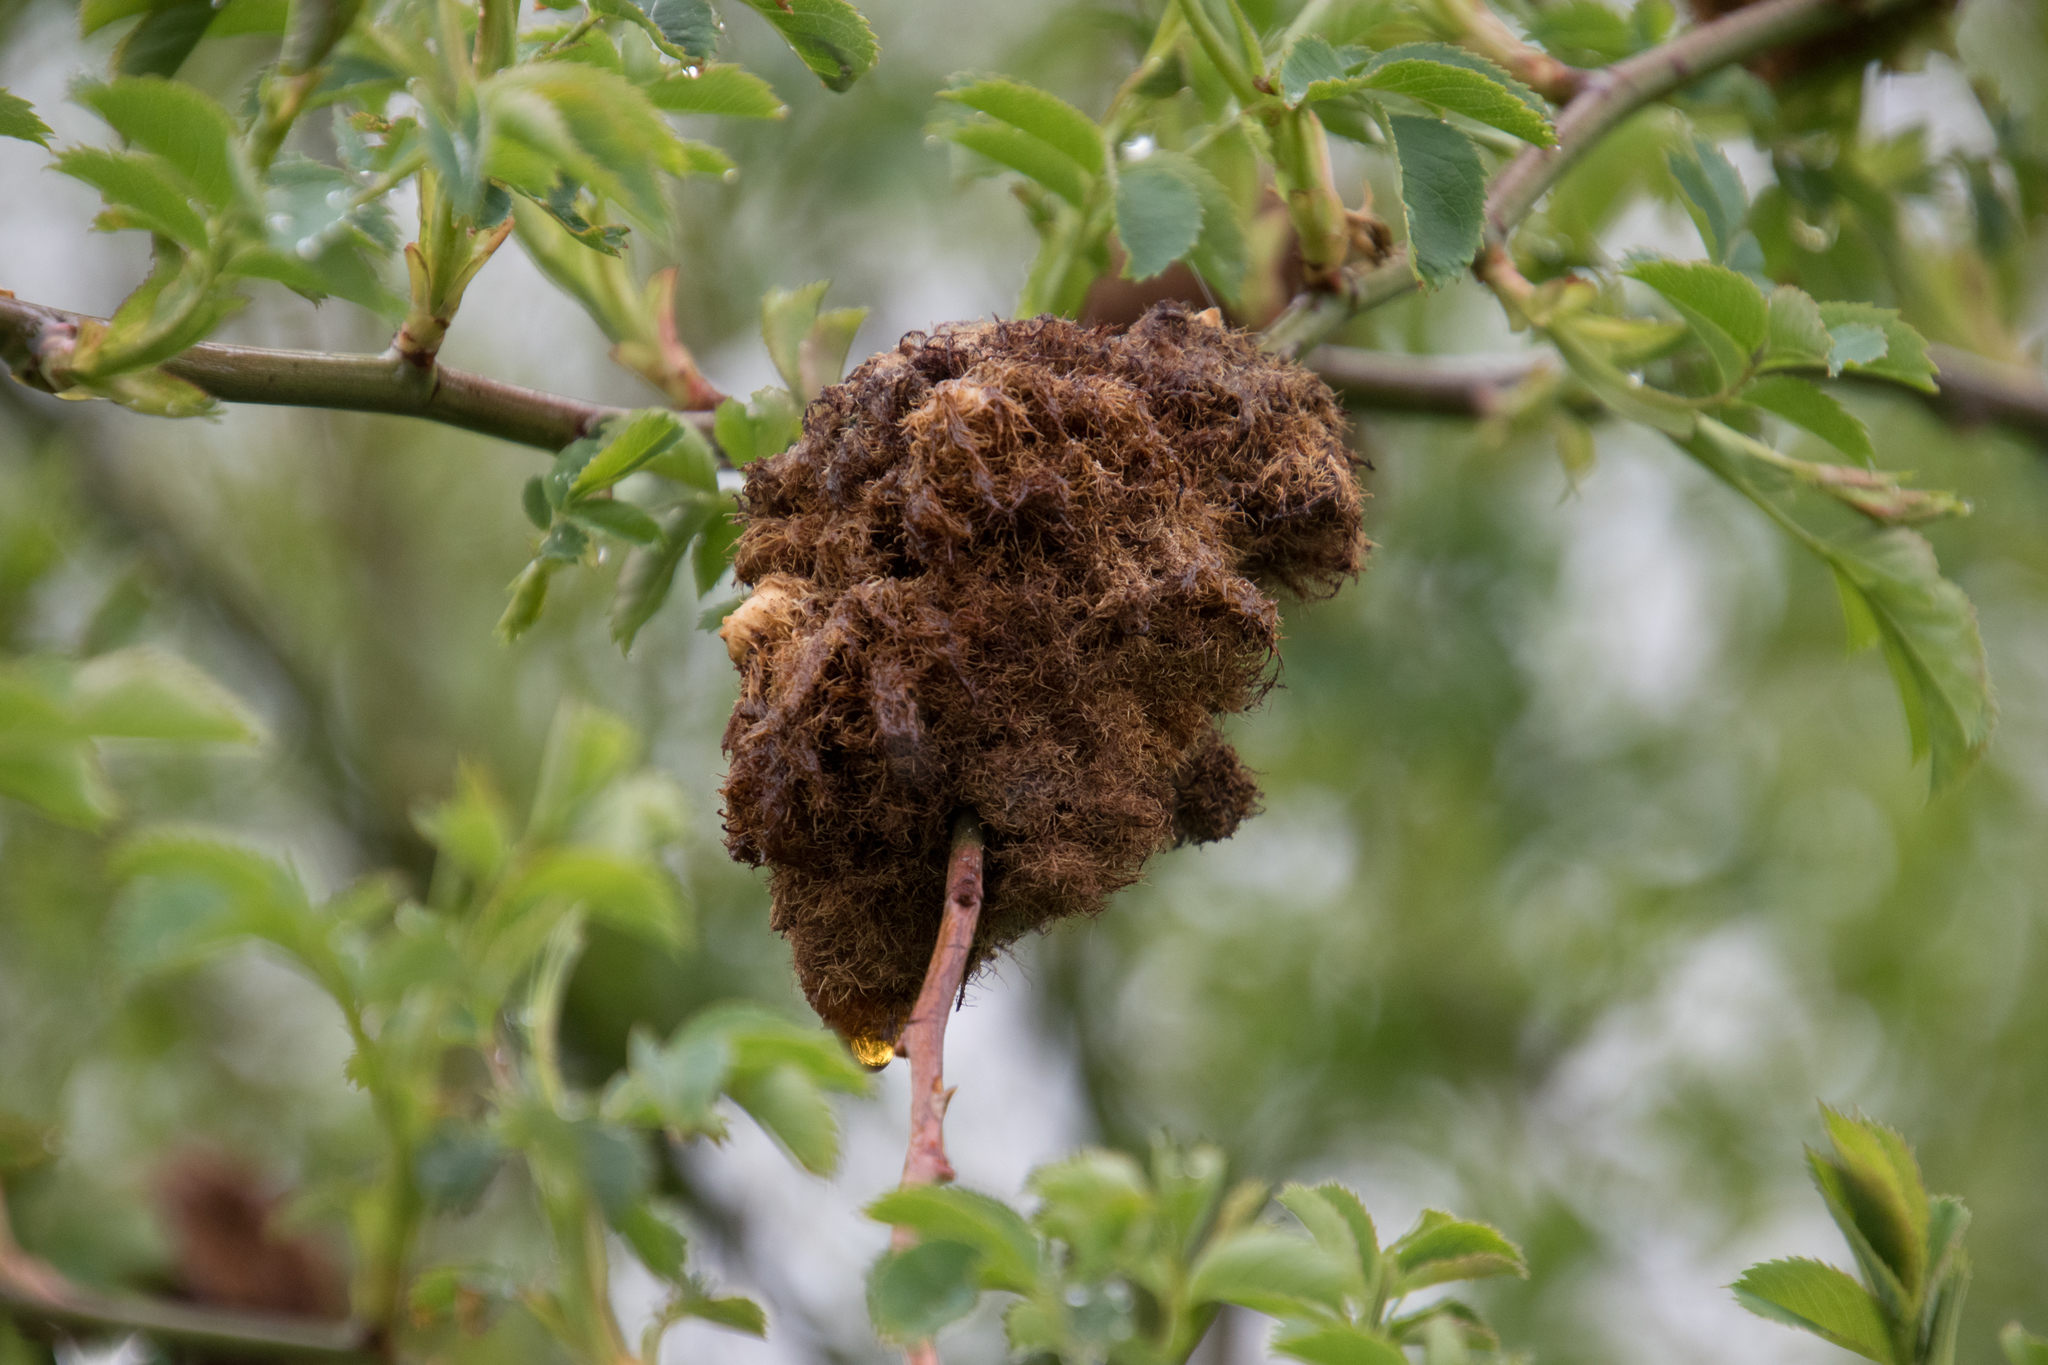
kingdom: Animalia
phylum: Arthropoda
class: Insecta
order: Hymenoptera
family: Cynipidae
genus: Diplolepis
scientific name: Diplolepis rosae
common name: Bedeguar gall
